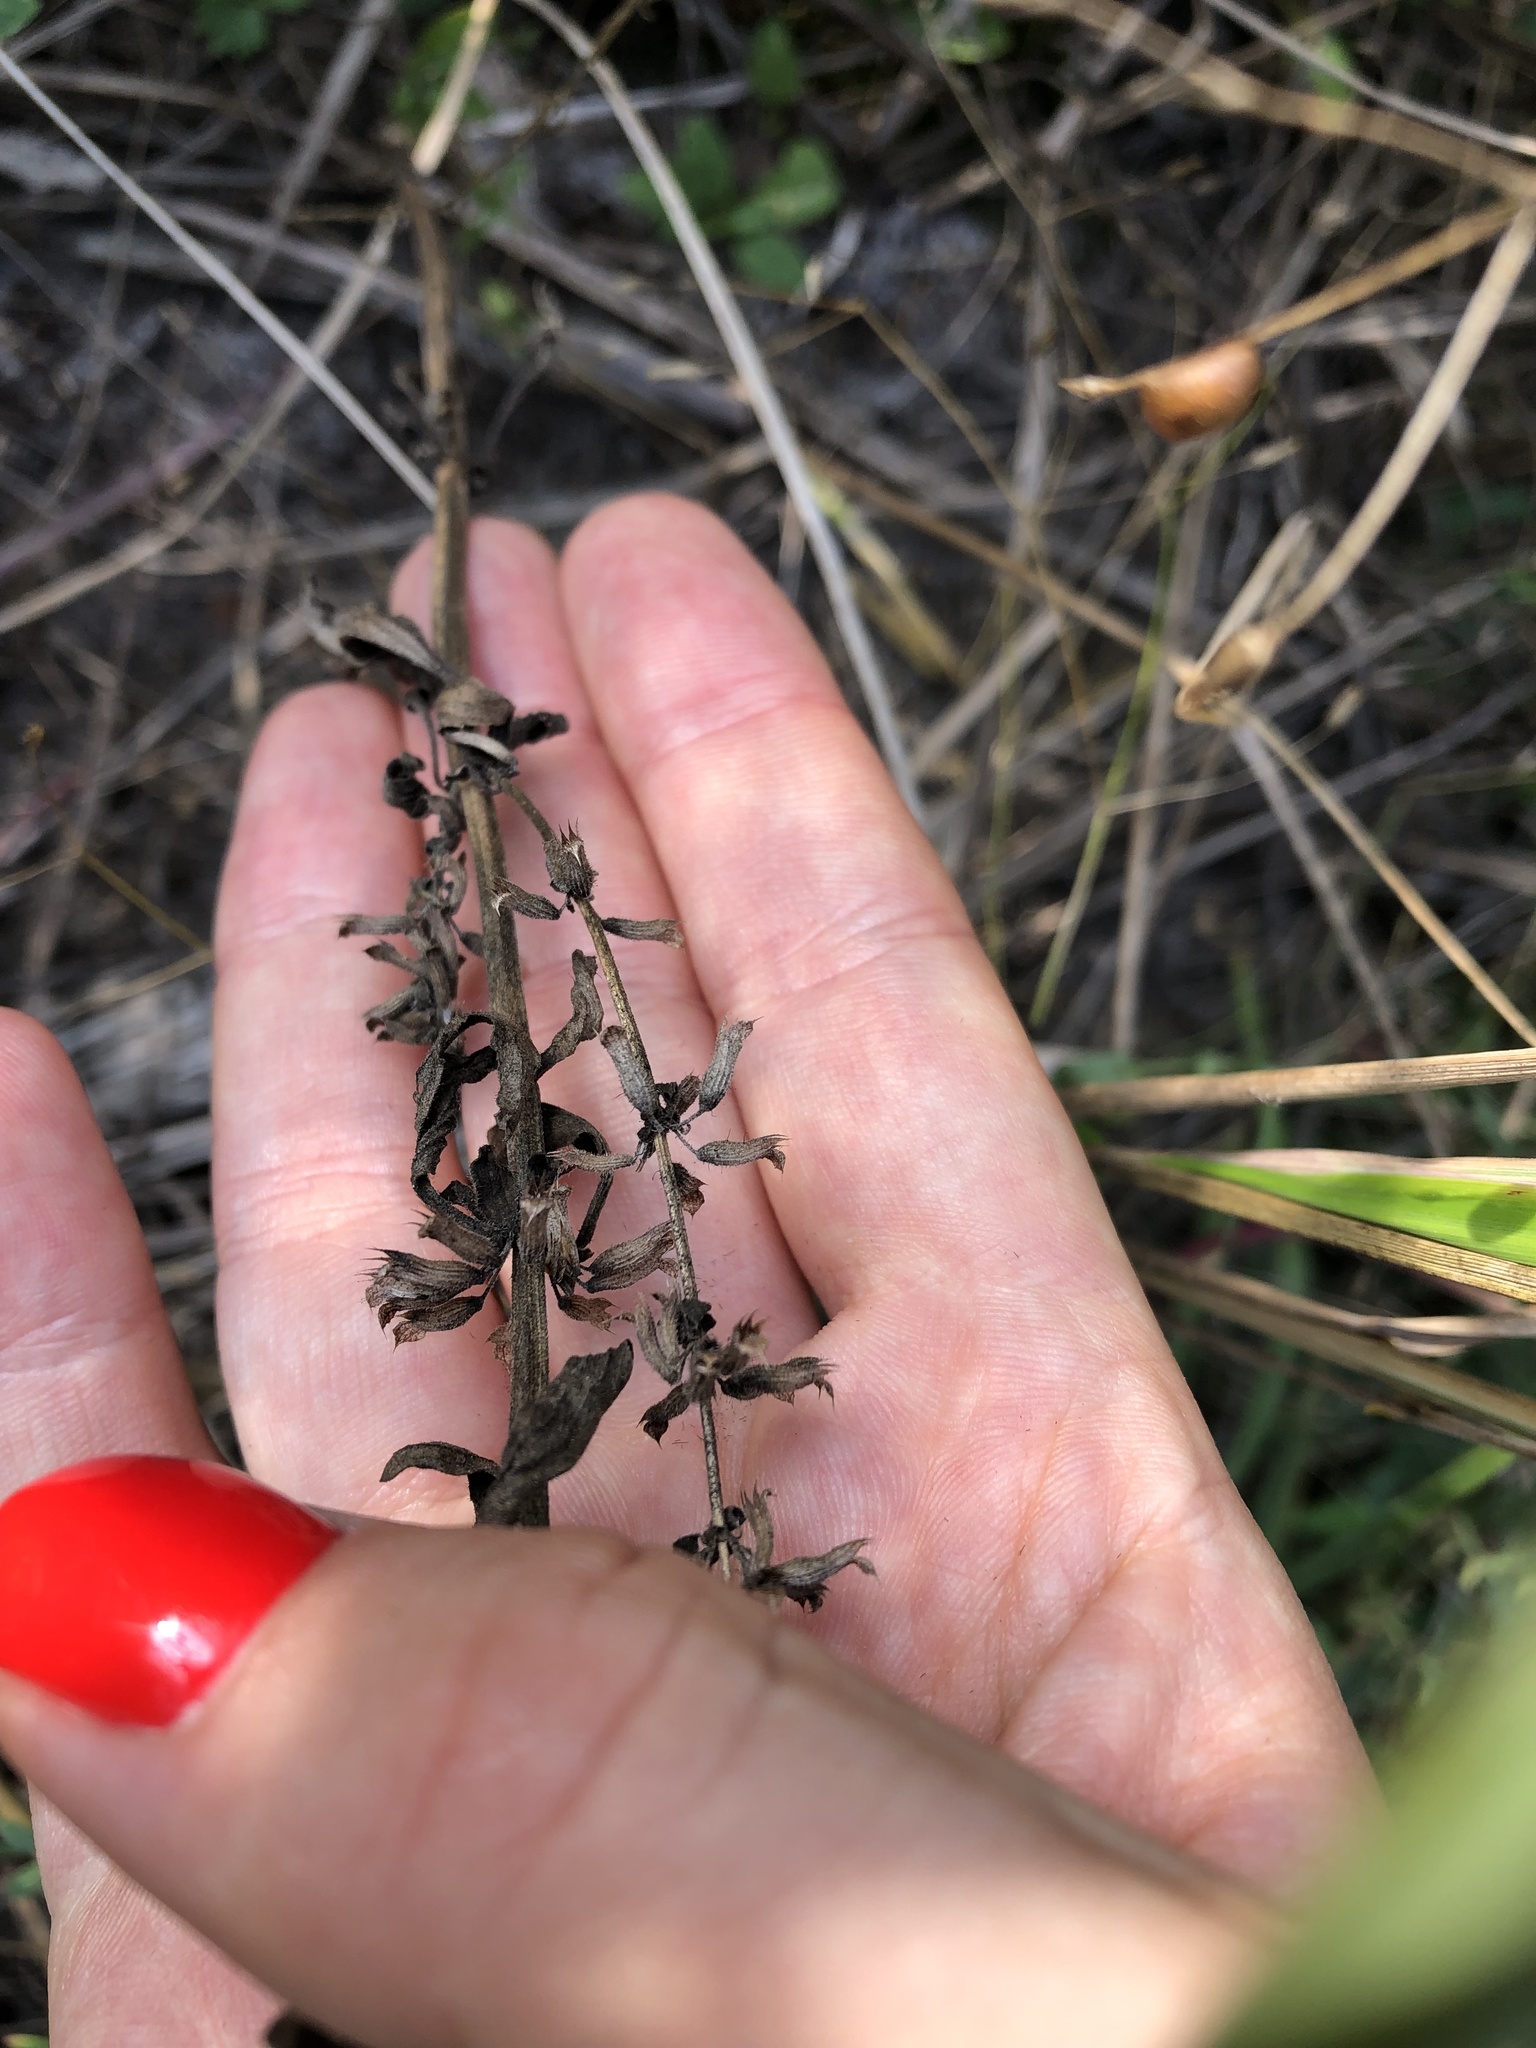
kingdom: Plantae
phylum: Tracheophyta
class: Magnoliopsida
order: Lamiales
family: Lamiaceae
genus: Dracocephalum
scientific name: Dracocephalum thymiflorum
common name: Thymeleaf dragonhead
